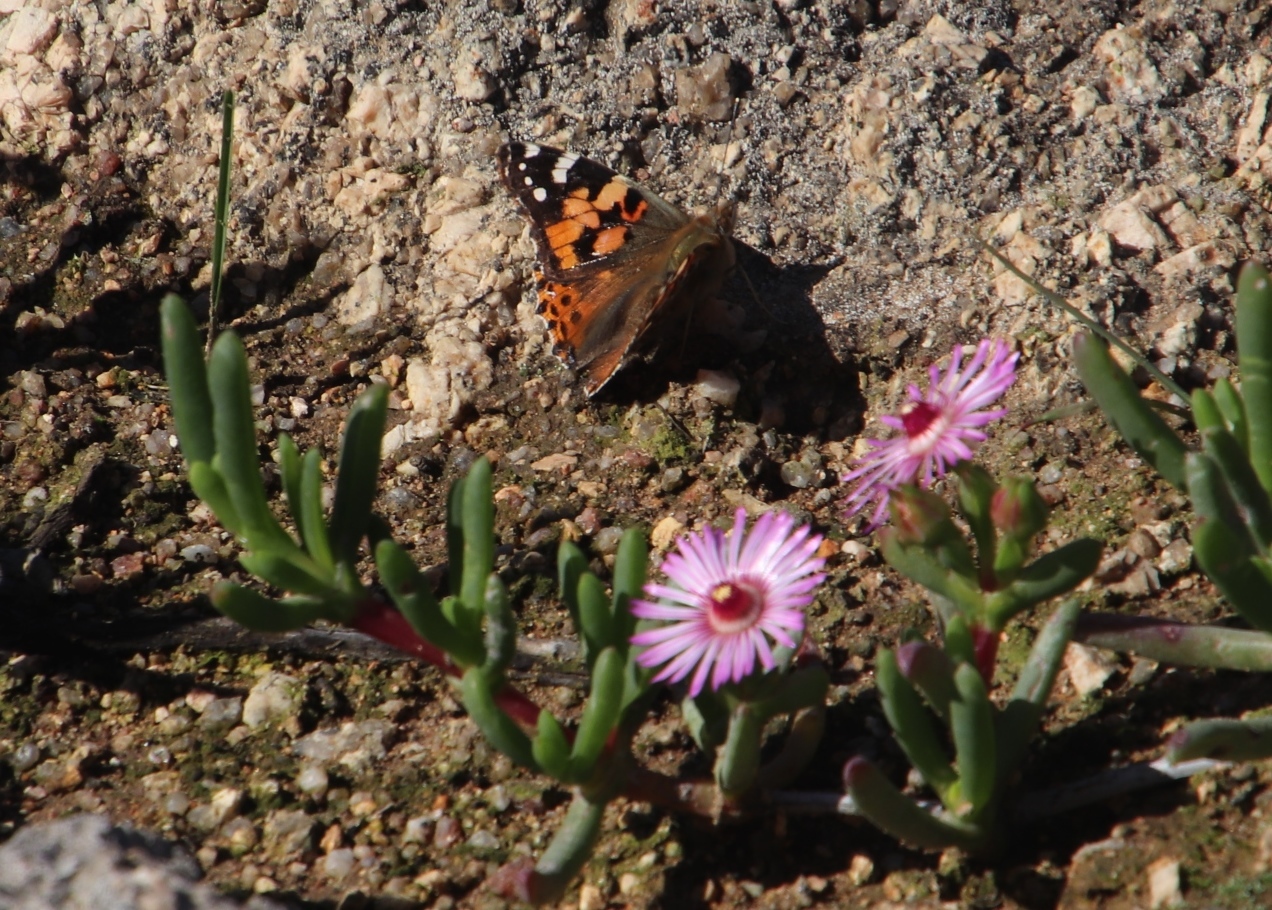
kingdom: Animalia
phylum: Arthropoda
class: Insecta
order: Lepidoptera
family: Nymphalidae
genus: Vanessa
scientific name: Vanessa cardui
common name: Painted lady
